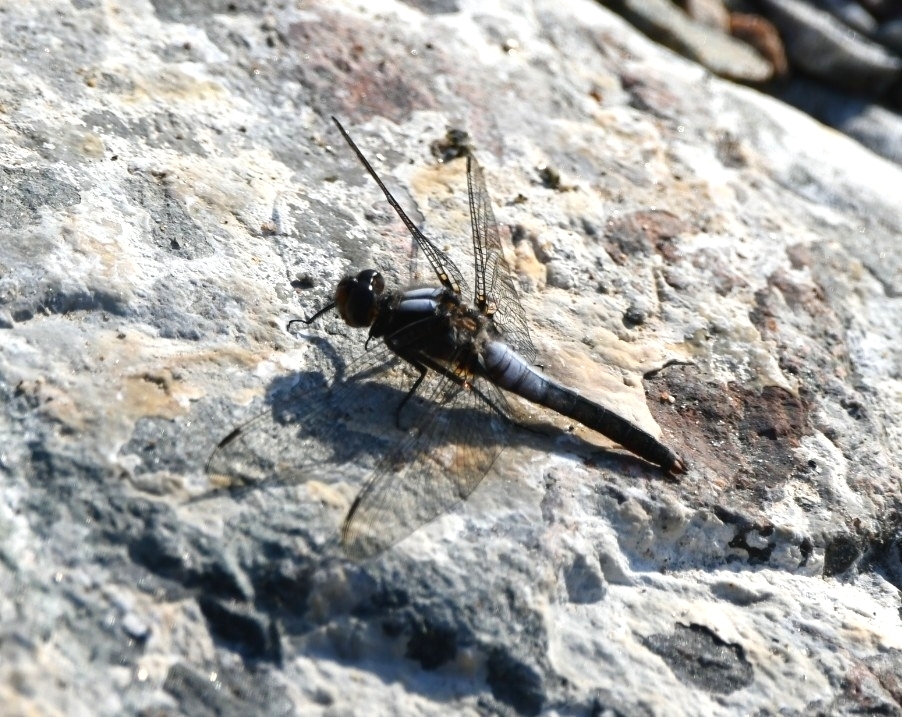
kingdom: Animalia
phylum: Arthropoda
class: Insecta
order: Odonata
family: Libellulidae
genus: Ladona
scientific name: Ladona julia
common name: Chalk-fronted corporal
